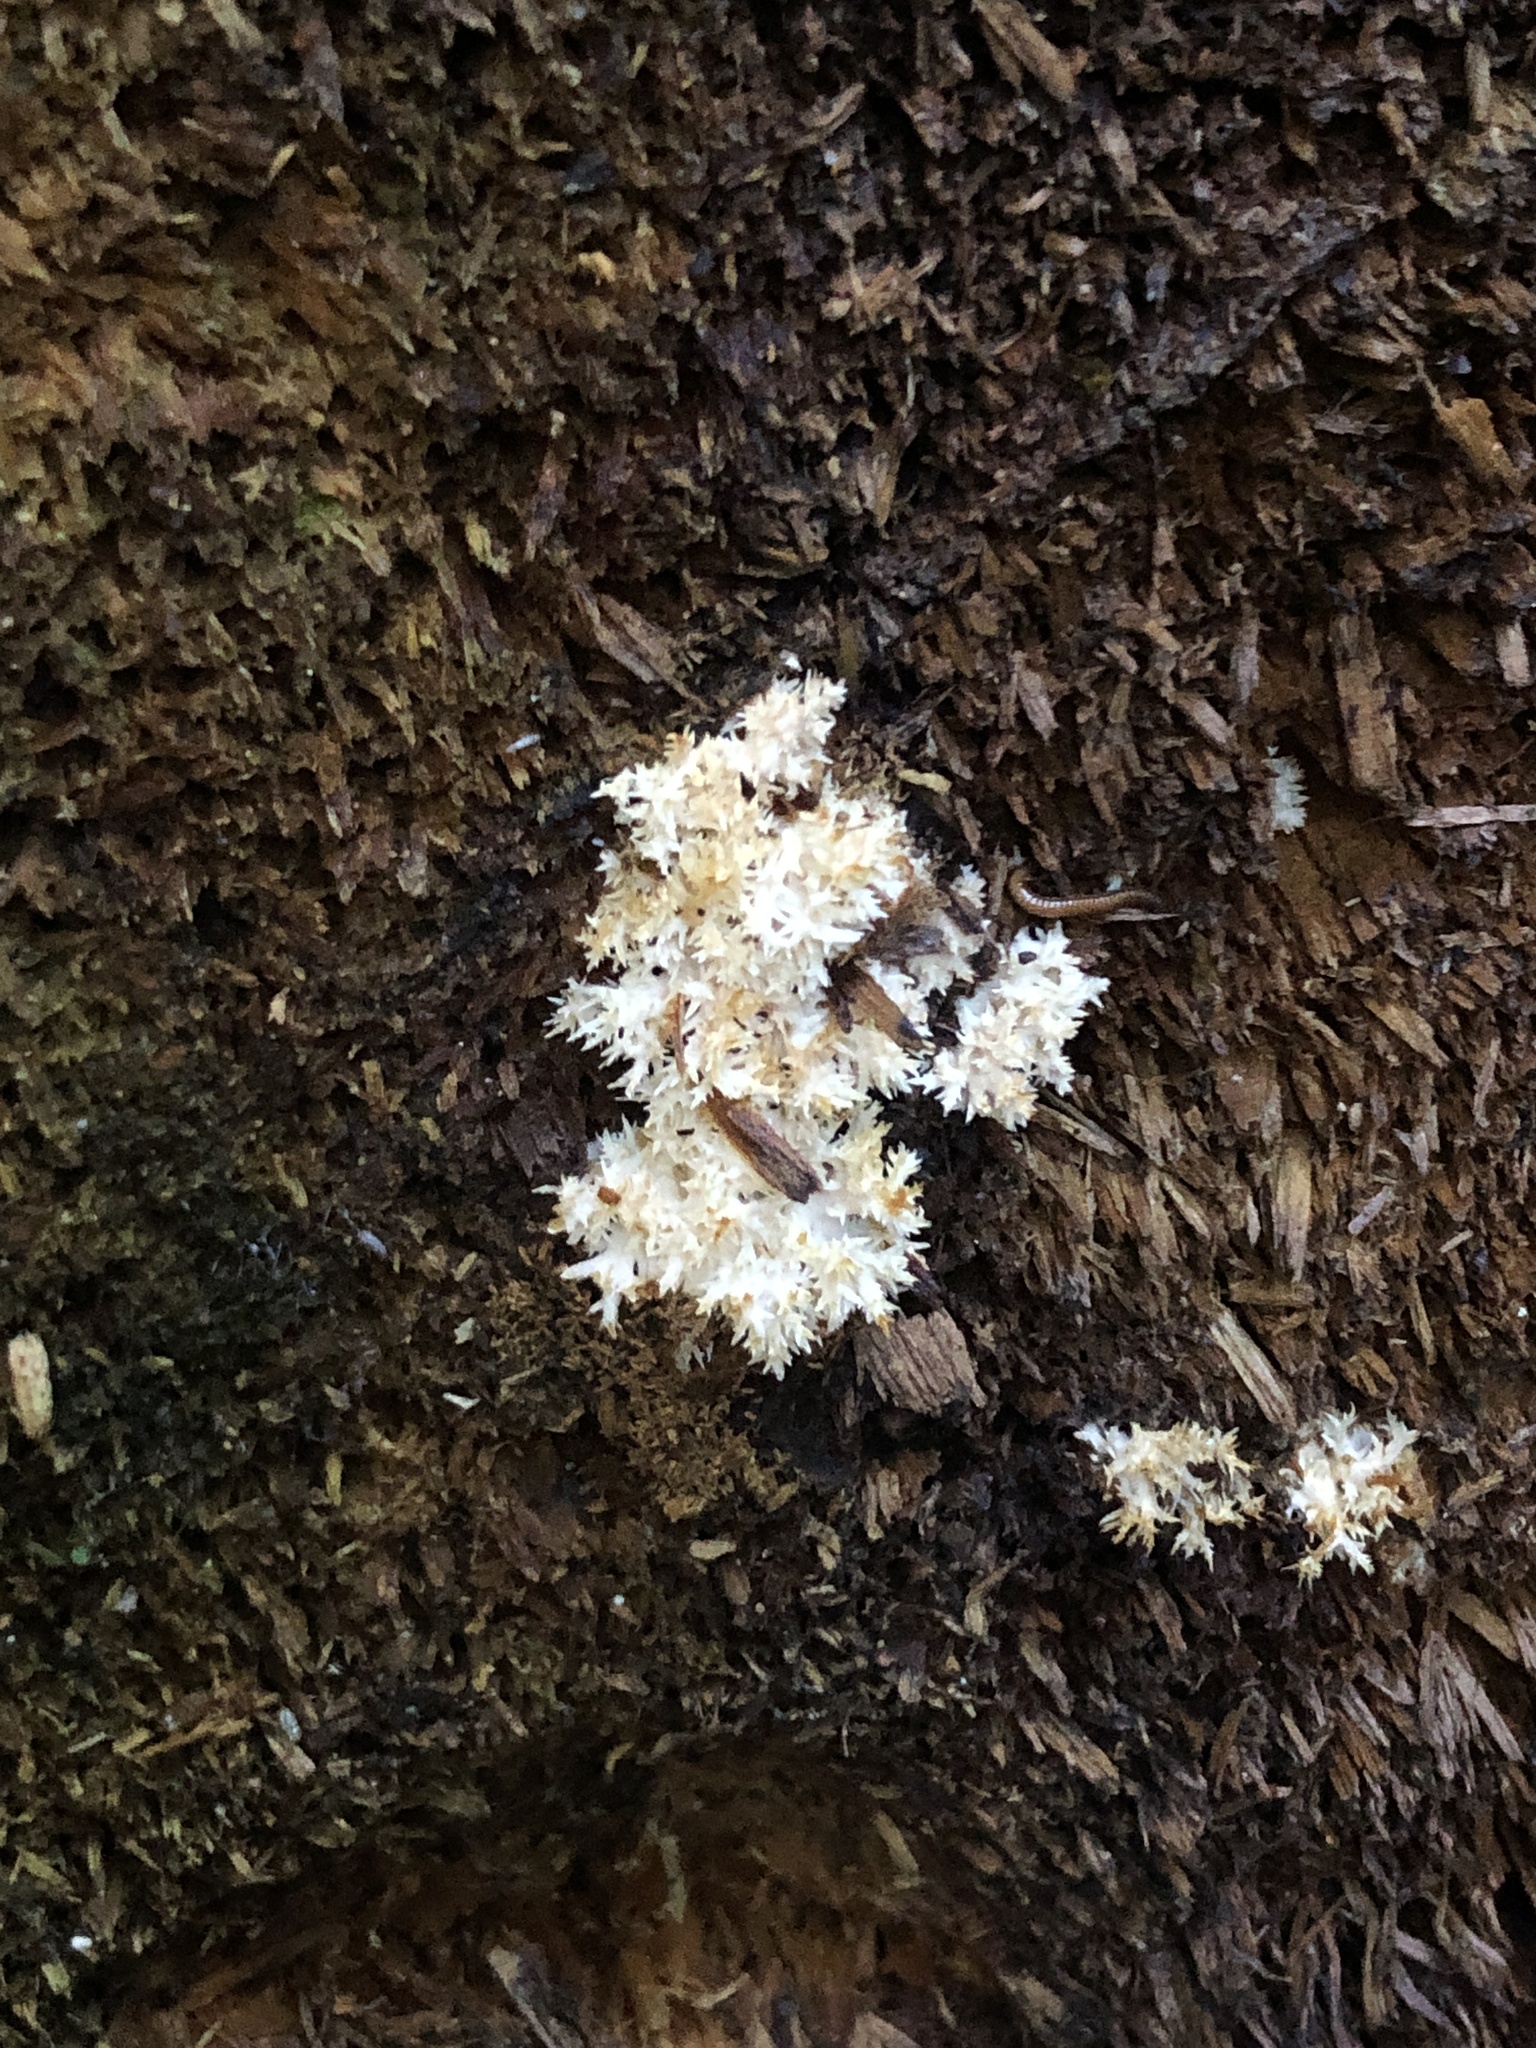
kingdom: Fungi
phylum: Basidiomycota
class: Agaricomycetes
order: Russulales
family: Hericiaceae
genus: Hericium
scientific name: Hericium novae-zealandiae
